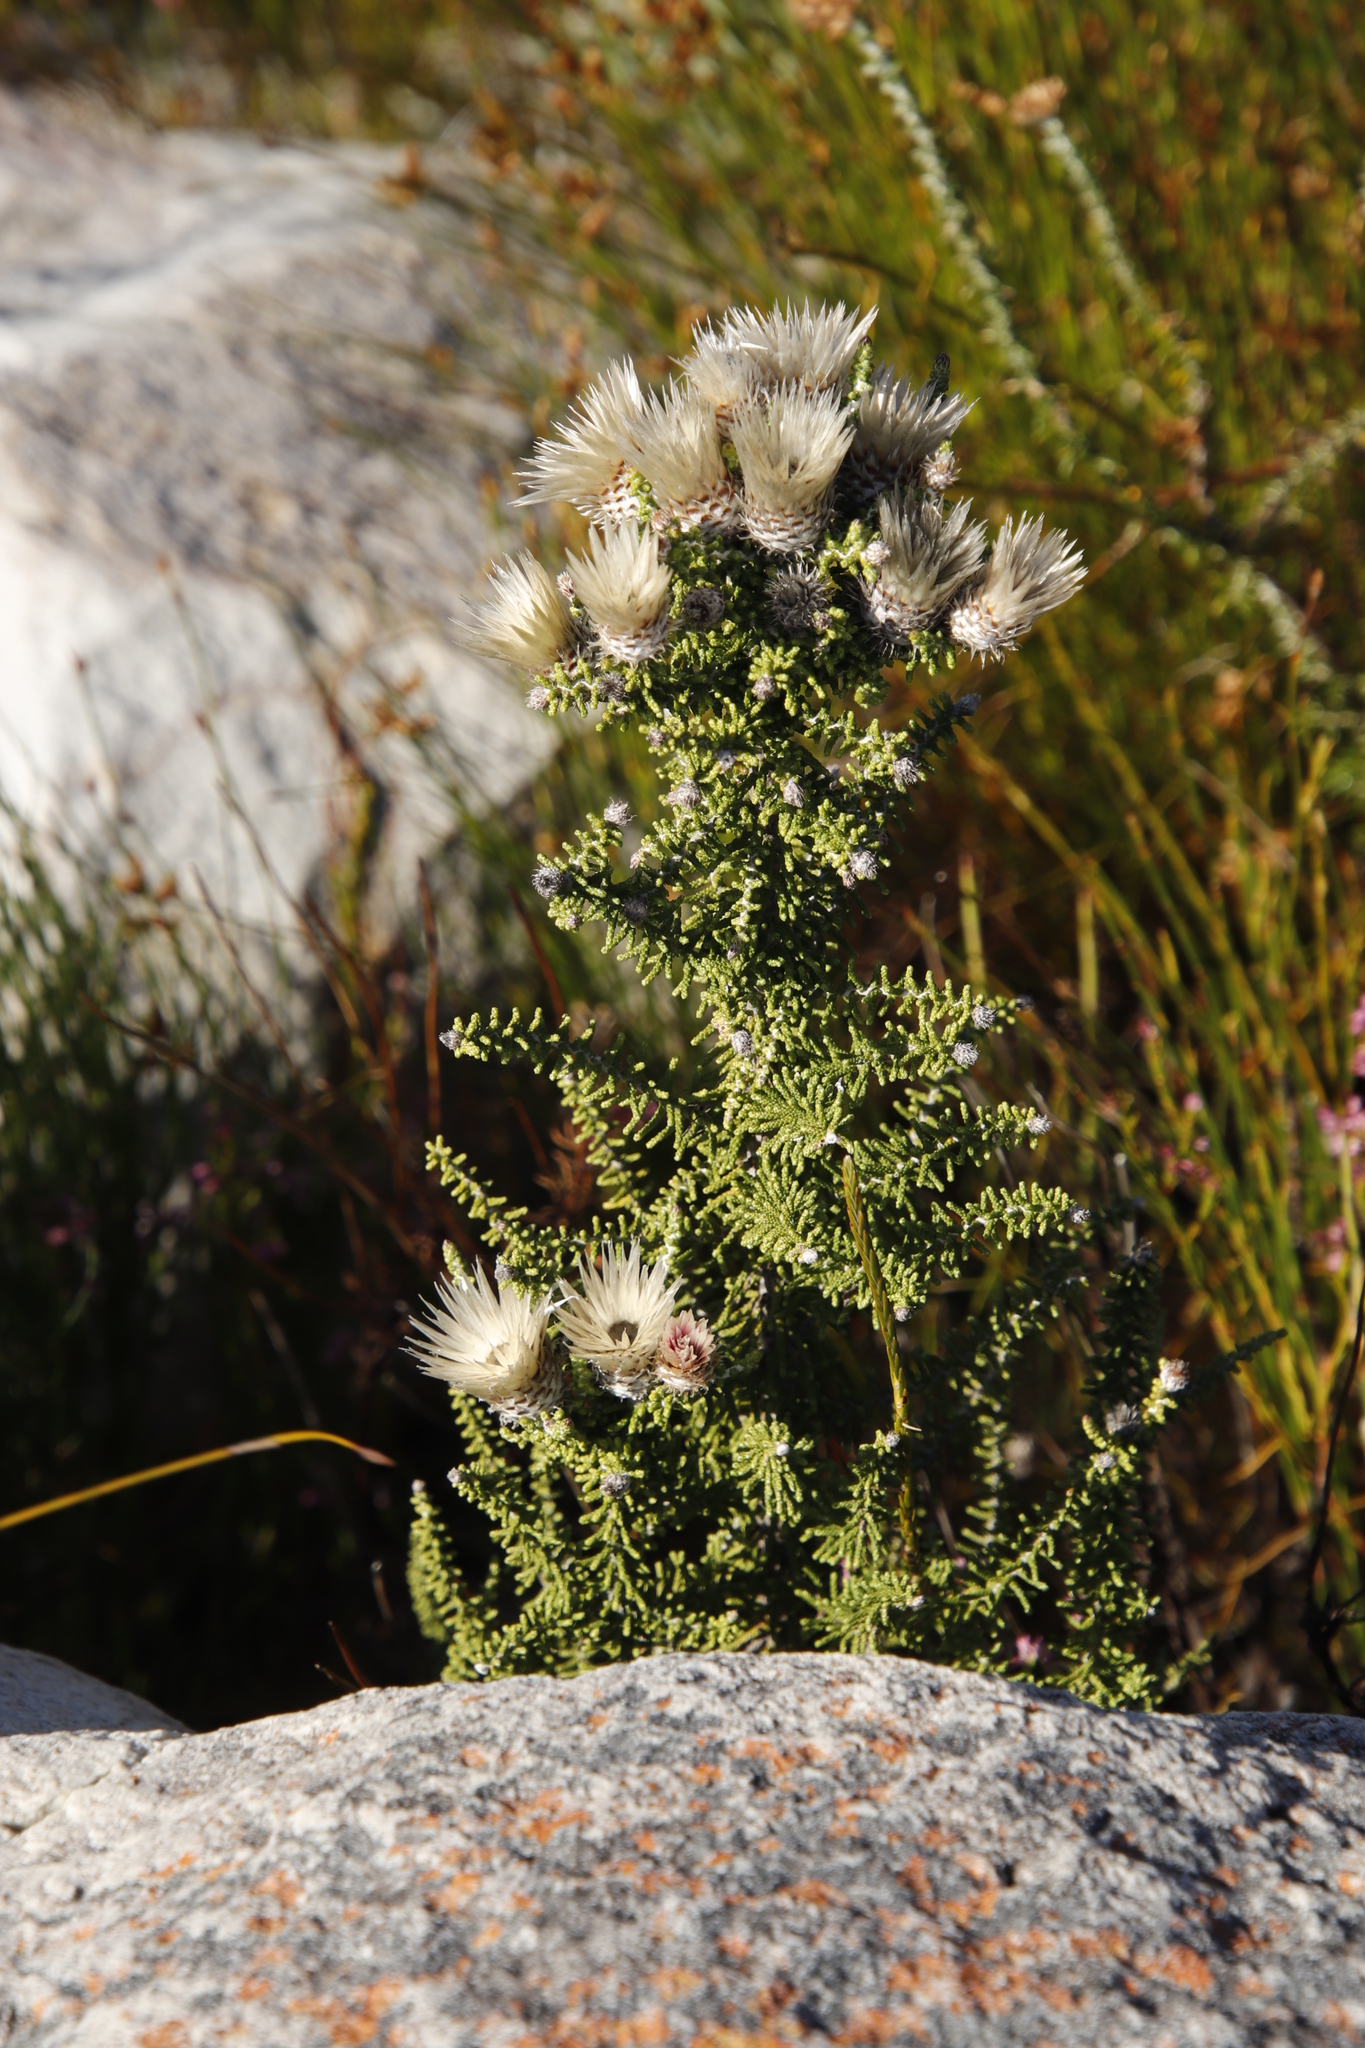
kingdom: Plantae
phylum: Tracheophyta
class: Magnoliopsida
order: Asterales
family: Asteraceae
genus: Phaenocoma
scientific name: Phaenocoma prolifera
